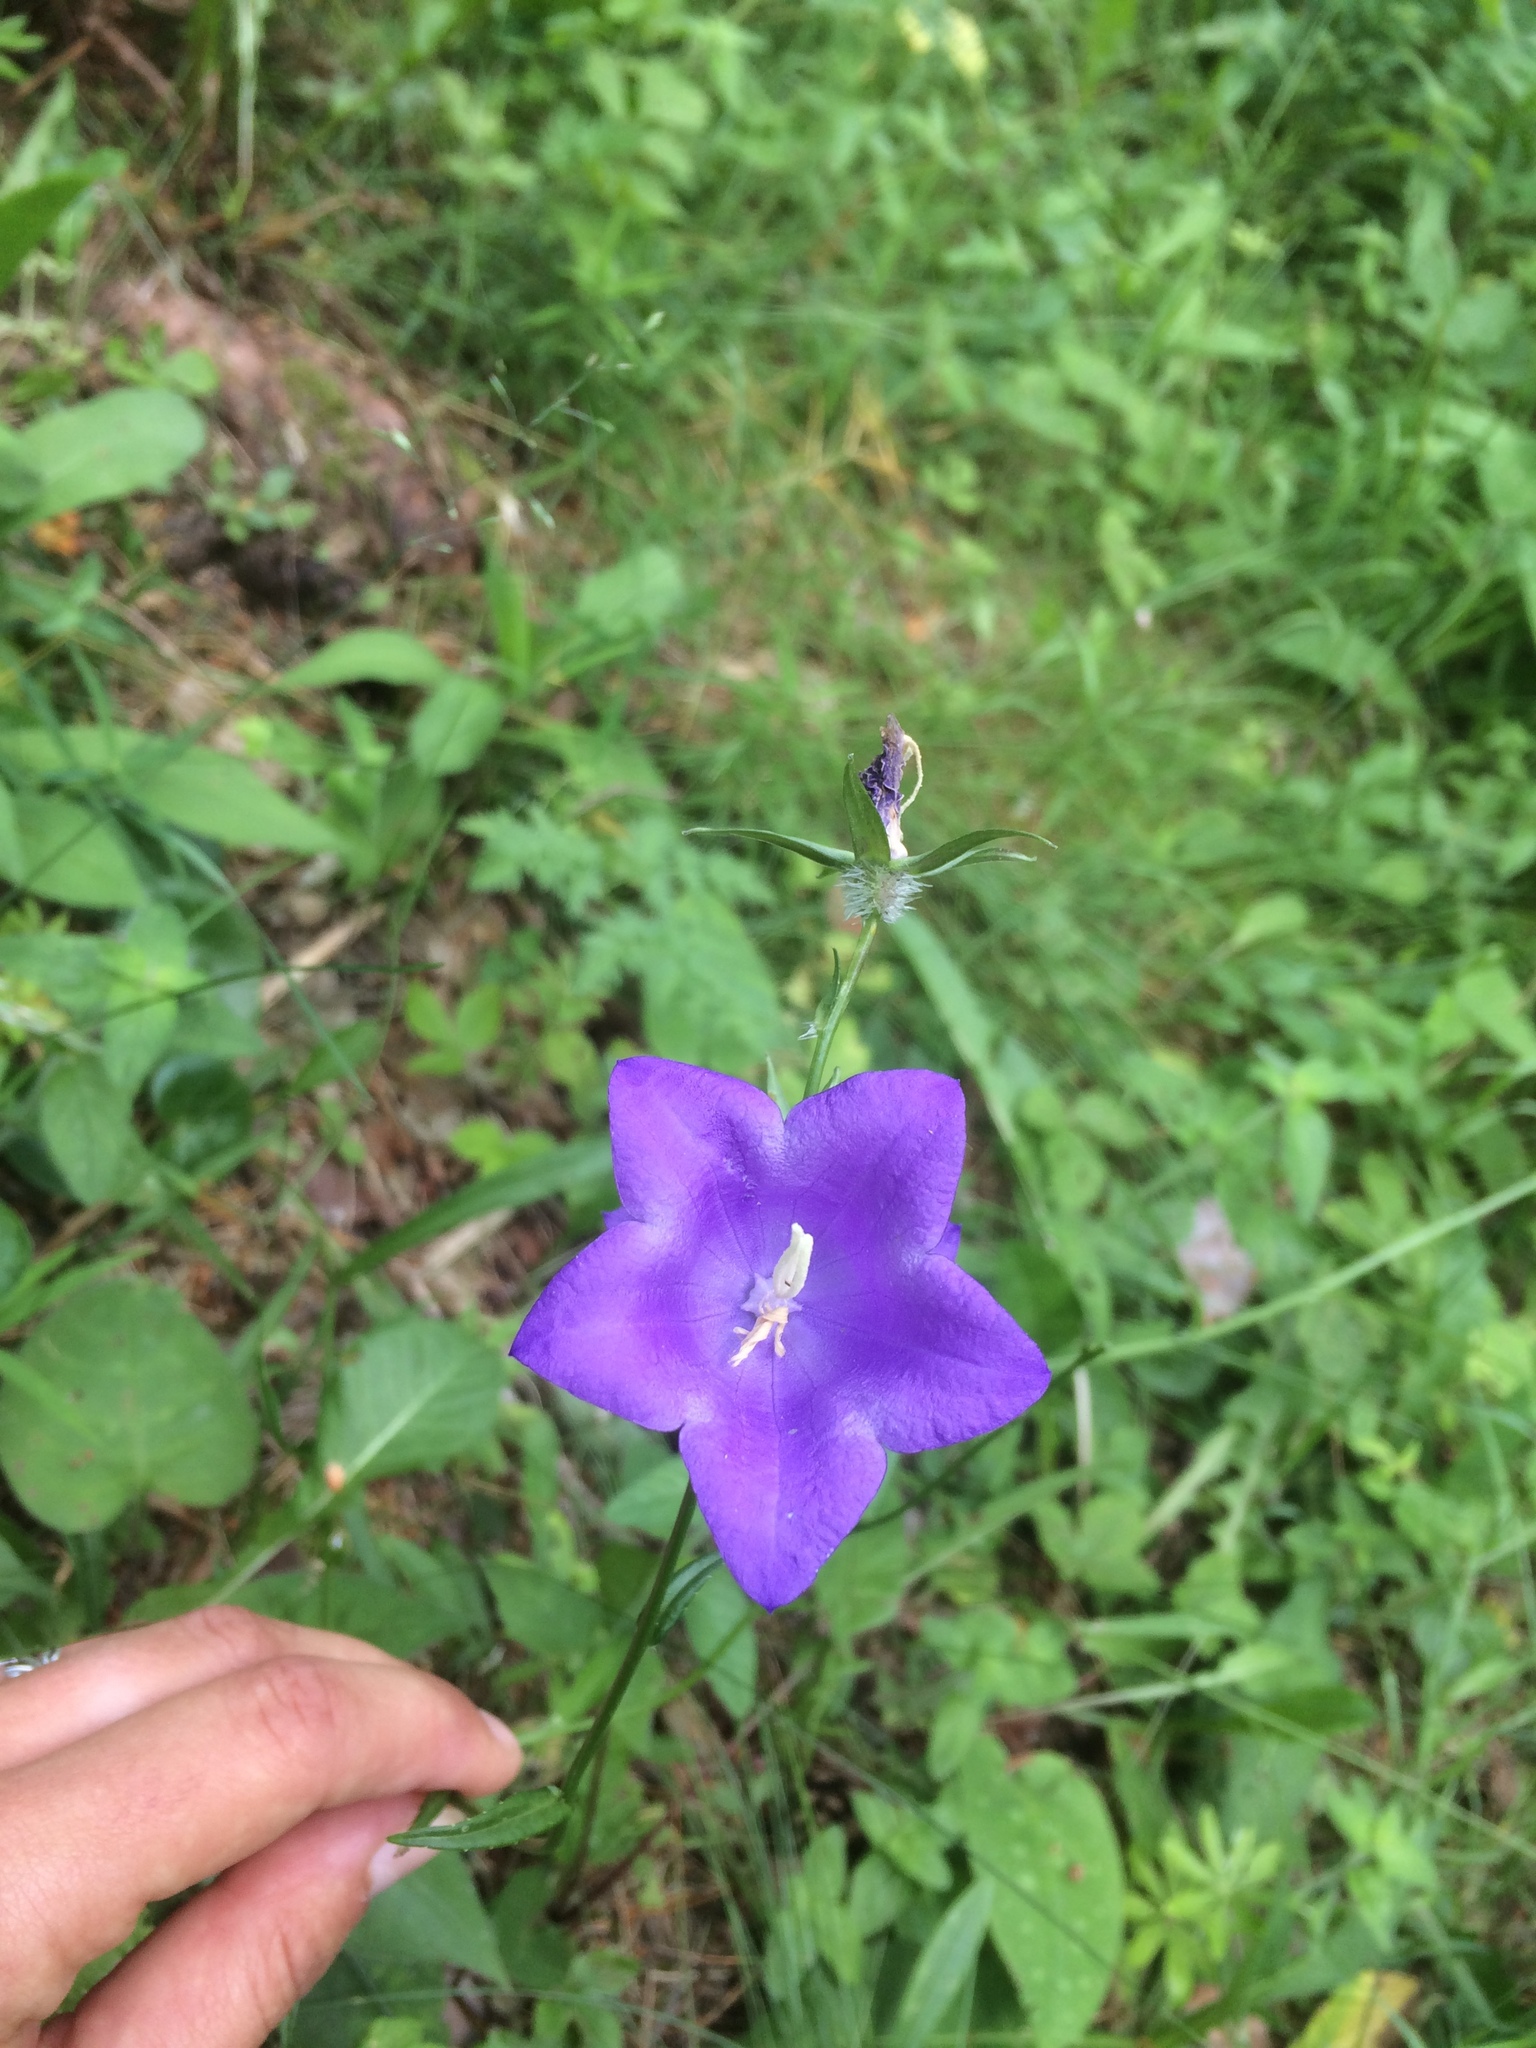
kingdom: Plantae
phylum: Tracheophyta
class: Magnoliopsida
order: Asterales
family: Campanulaceae
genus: Campanula
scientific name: Campanula persicifolia
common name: Peach-leaved bellflower
